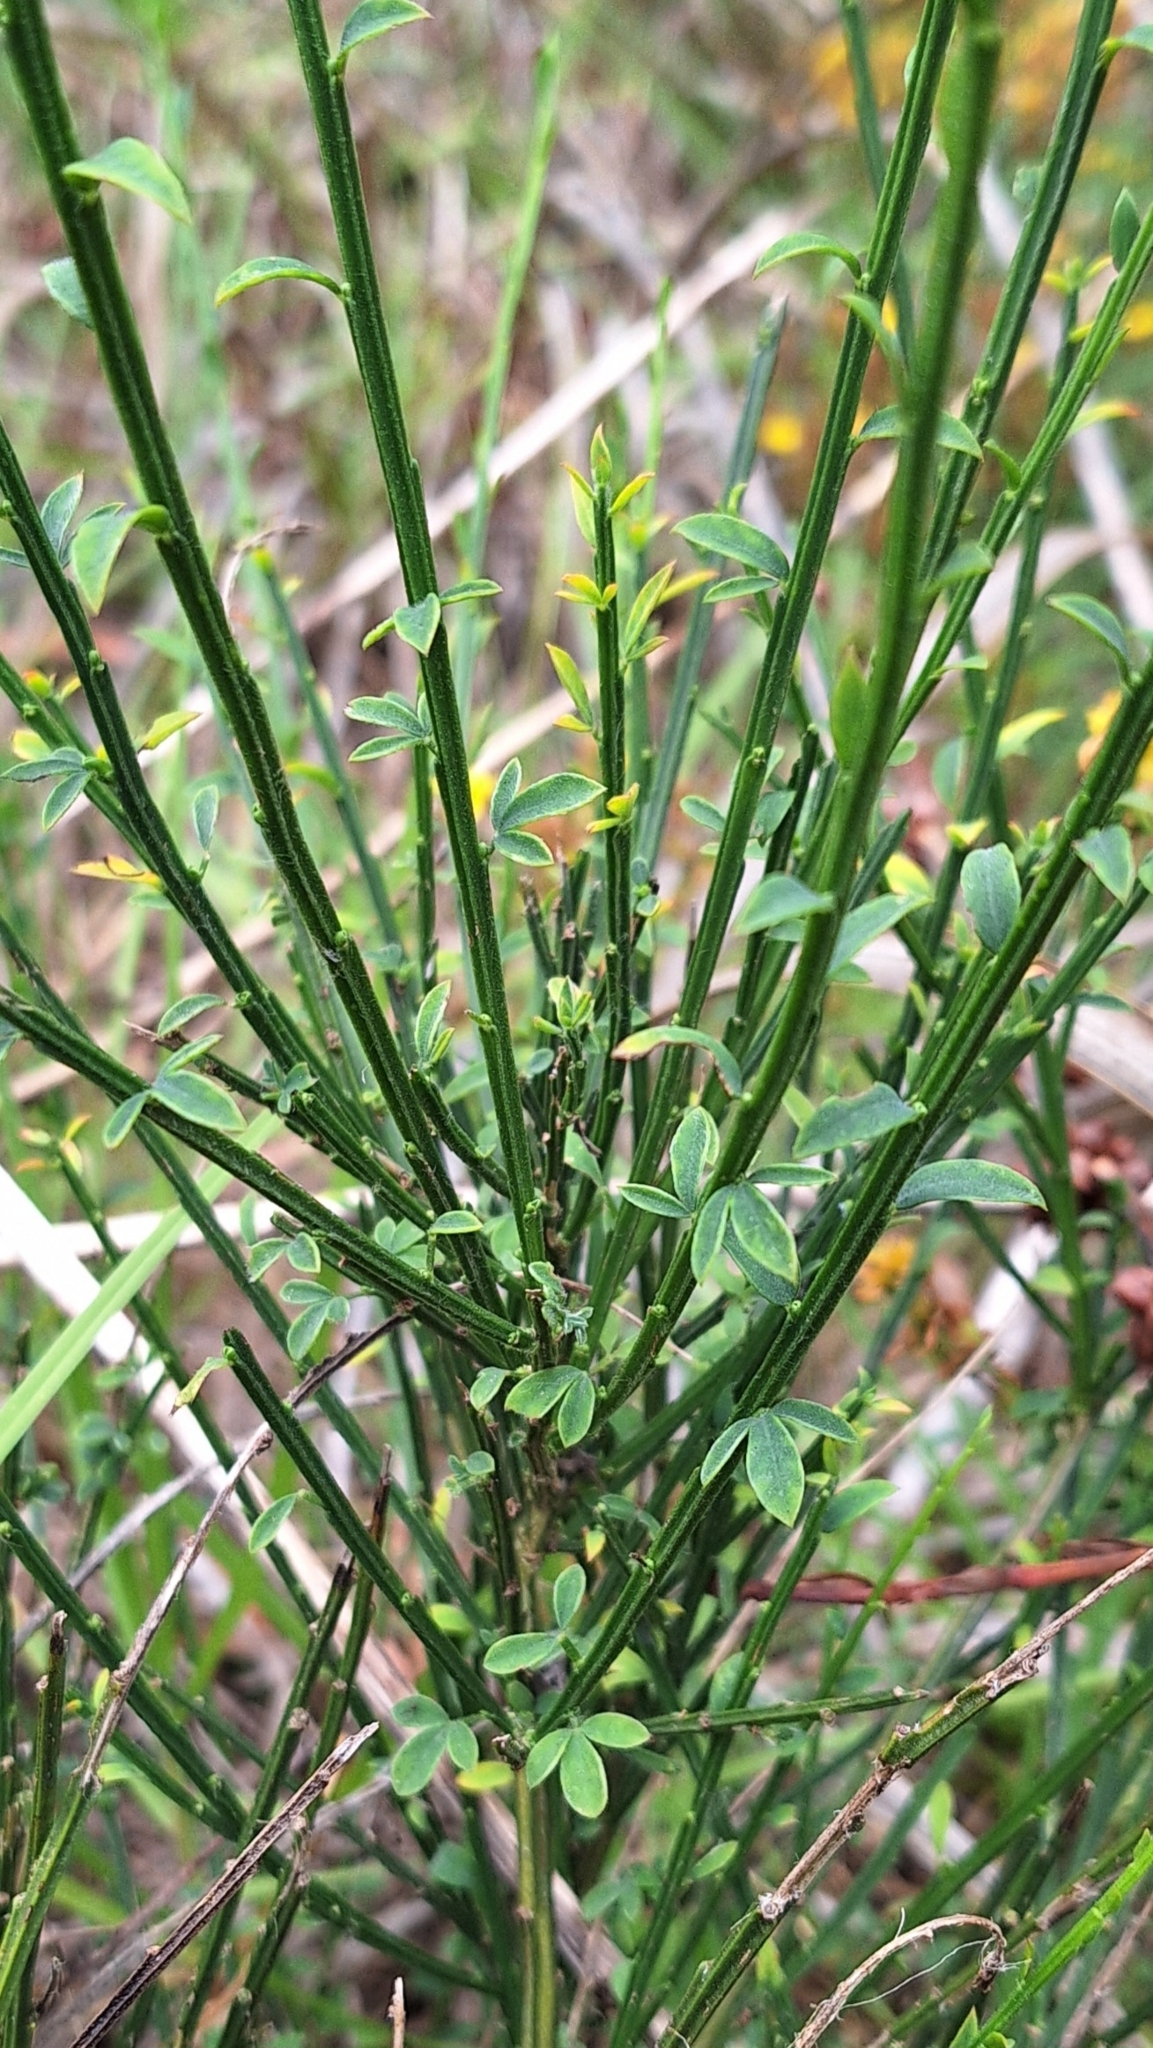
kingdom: Plantae
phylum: Tracheophyta
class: Magnoliopsida
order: Fabales
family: Fabaceae
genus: Cytisus
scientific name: Cytisus scoparius
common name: Scotch broom
